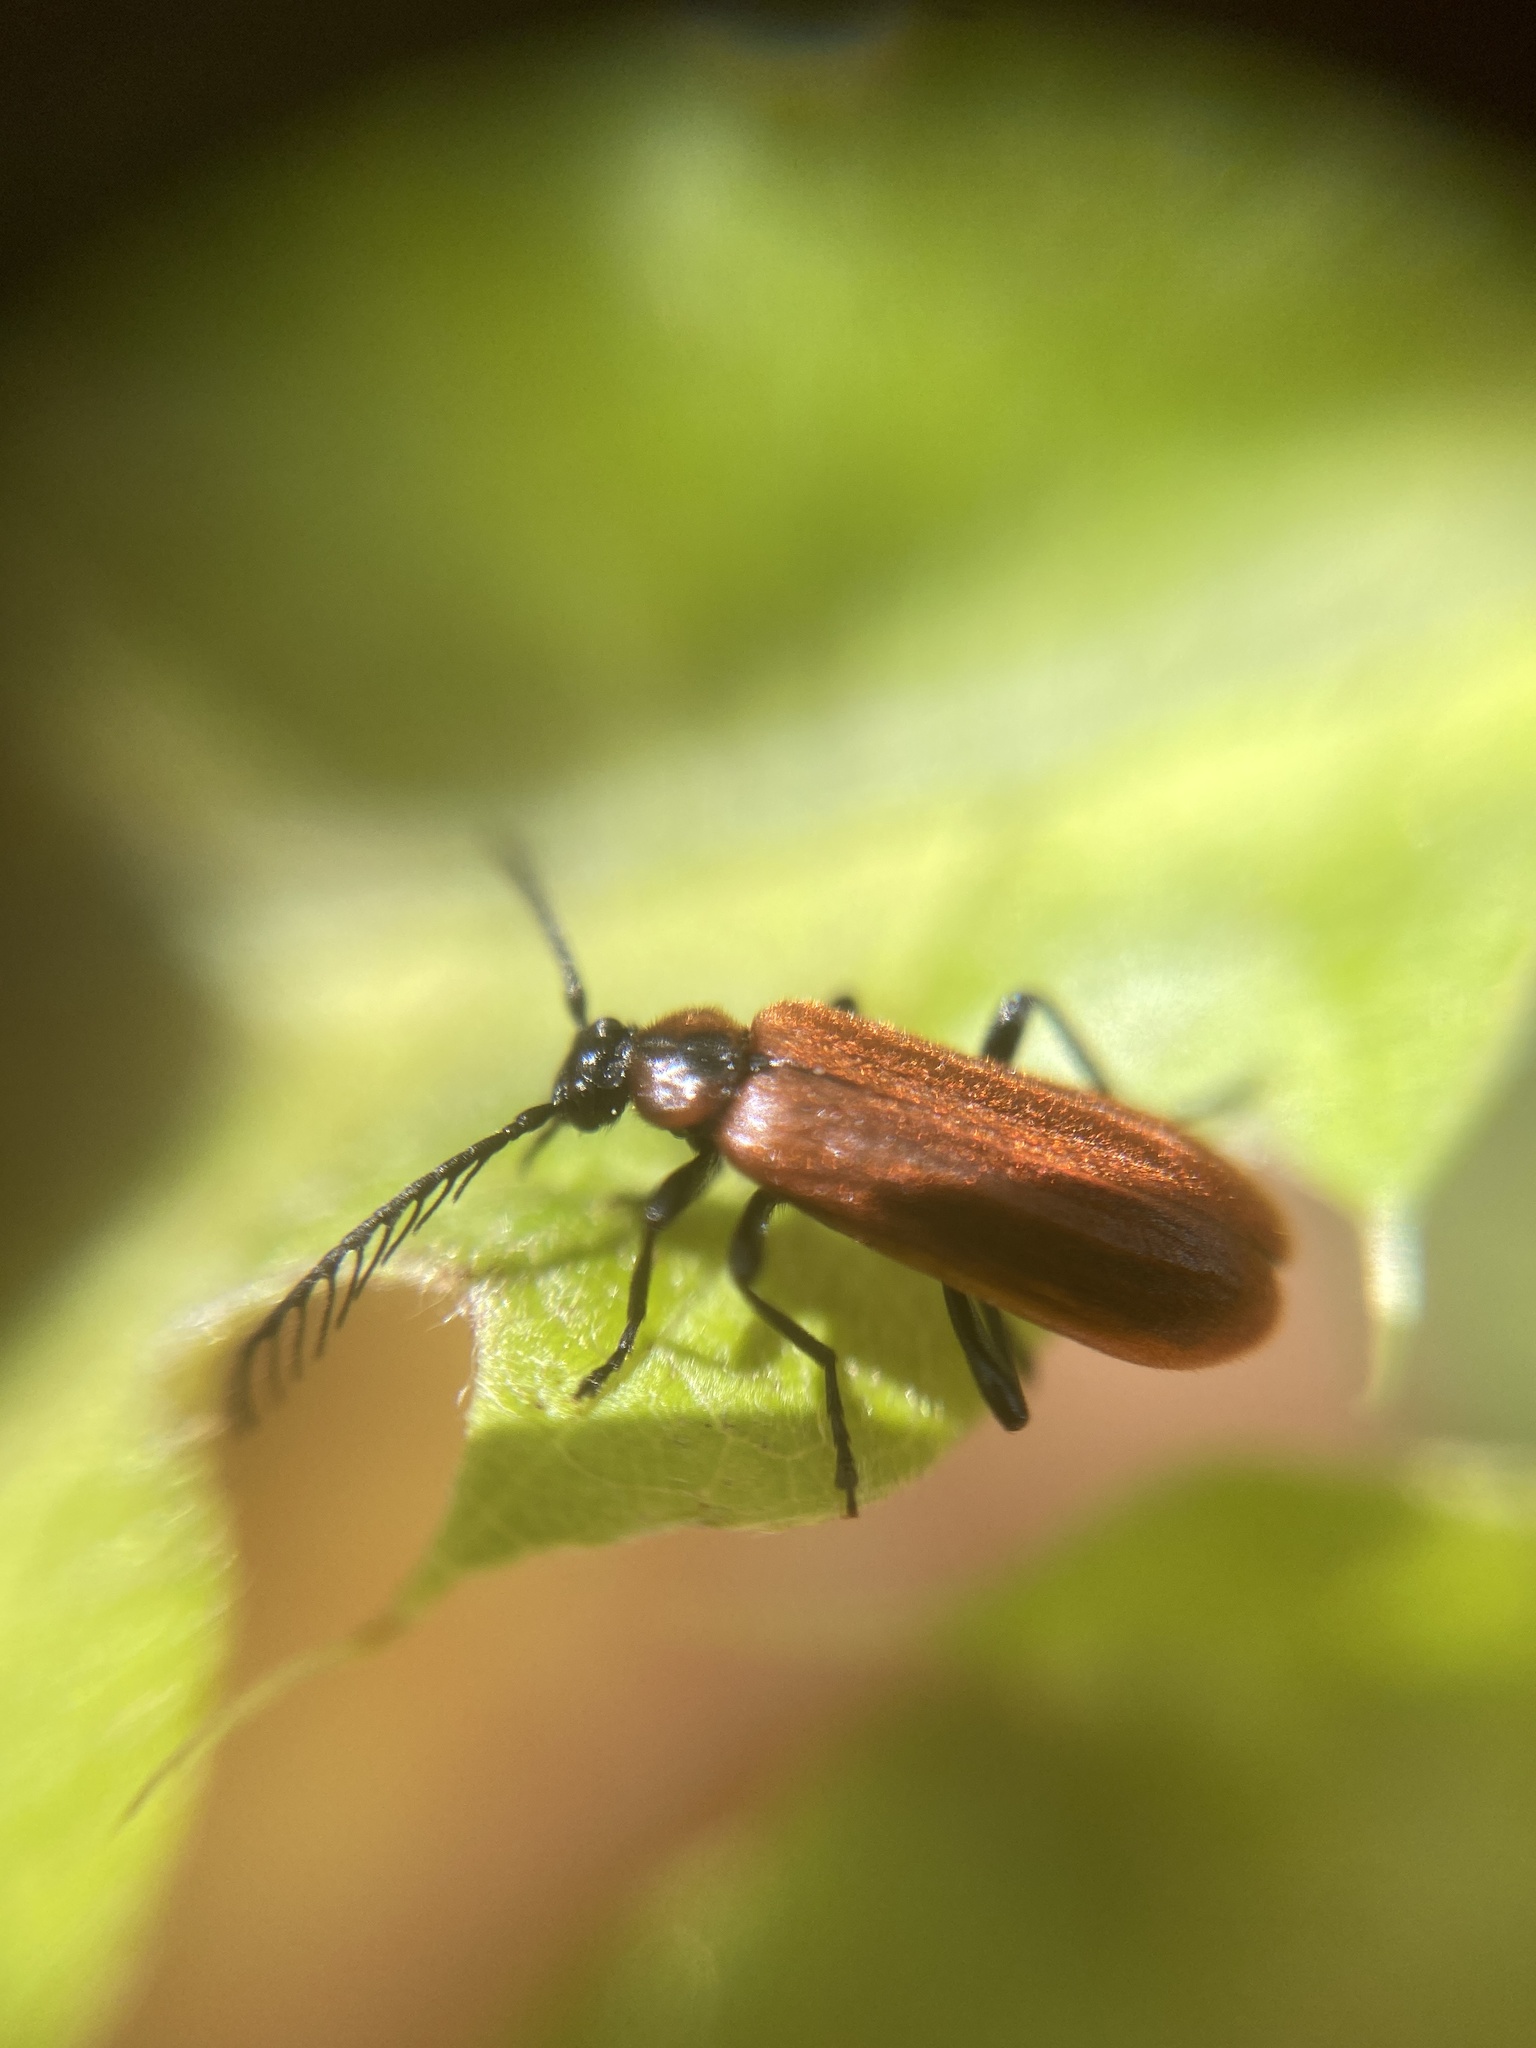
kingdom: Animalia
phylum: Arthropoda
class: Insecta
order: Coleoptera
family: Pyrochroidae
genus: Schizotus
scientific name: Schizotus pectinicornis
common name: Scarce cardinal beetle
